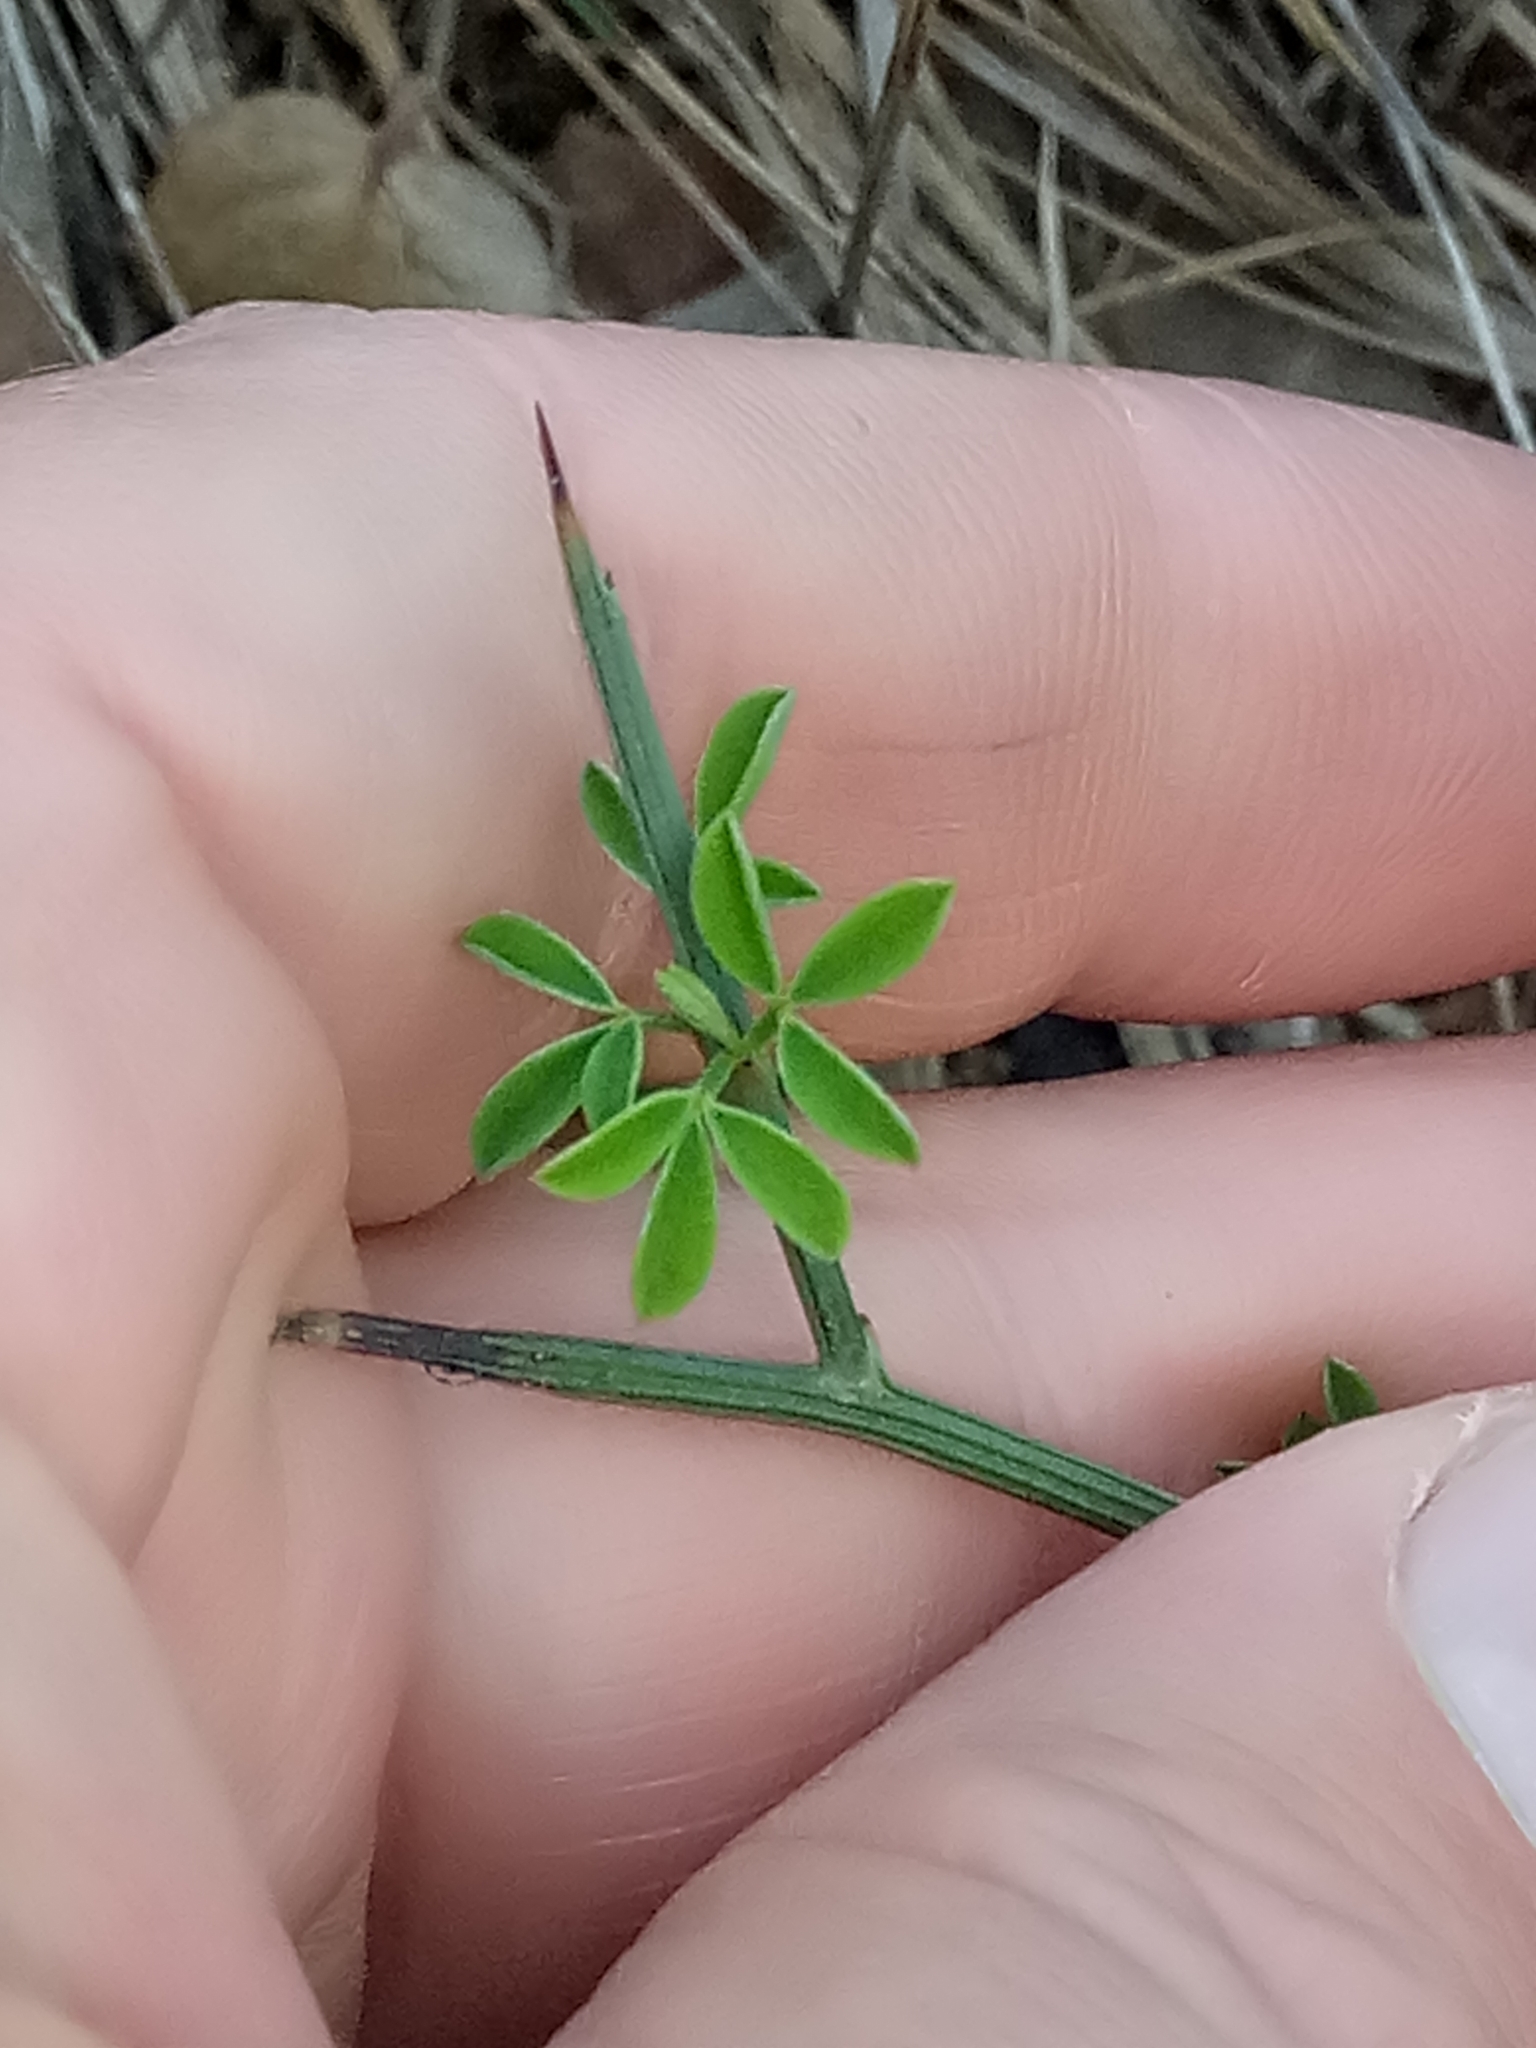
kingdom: Plantae
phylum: Tracheophyta
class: Magnoliopsida
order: Fabales
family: Fabaceae
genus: Calicotome
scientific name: Calicotome spinosa
